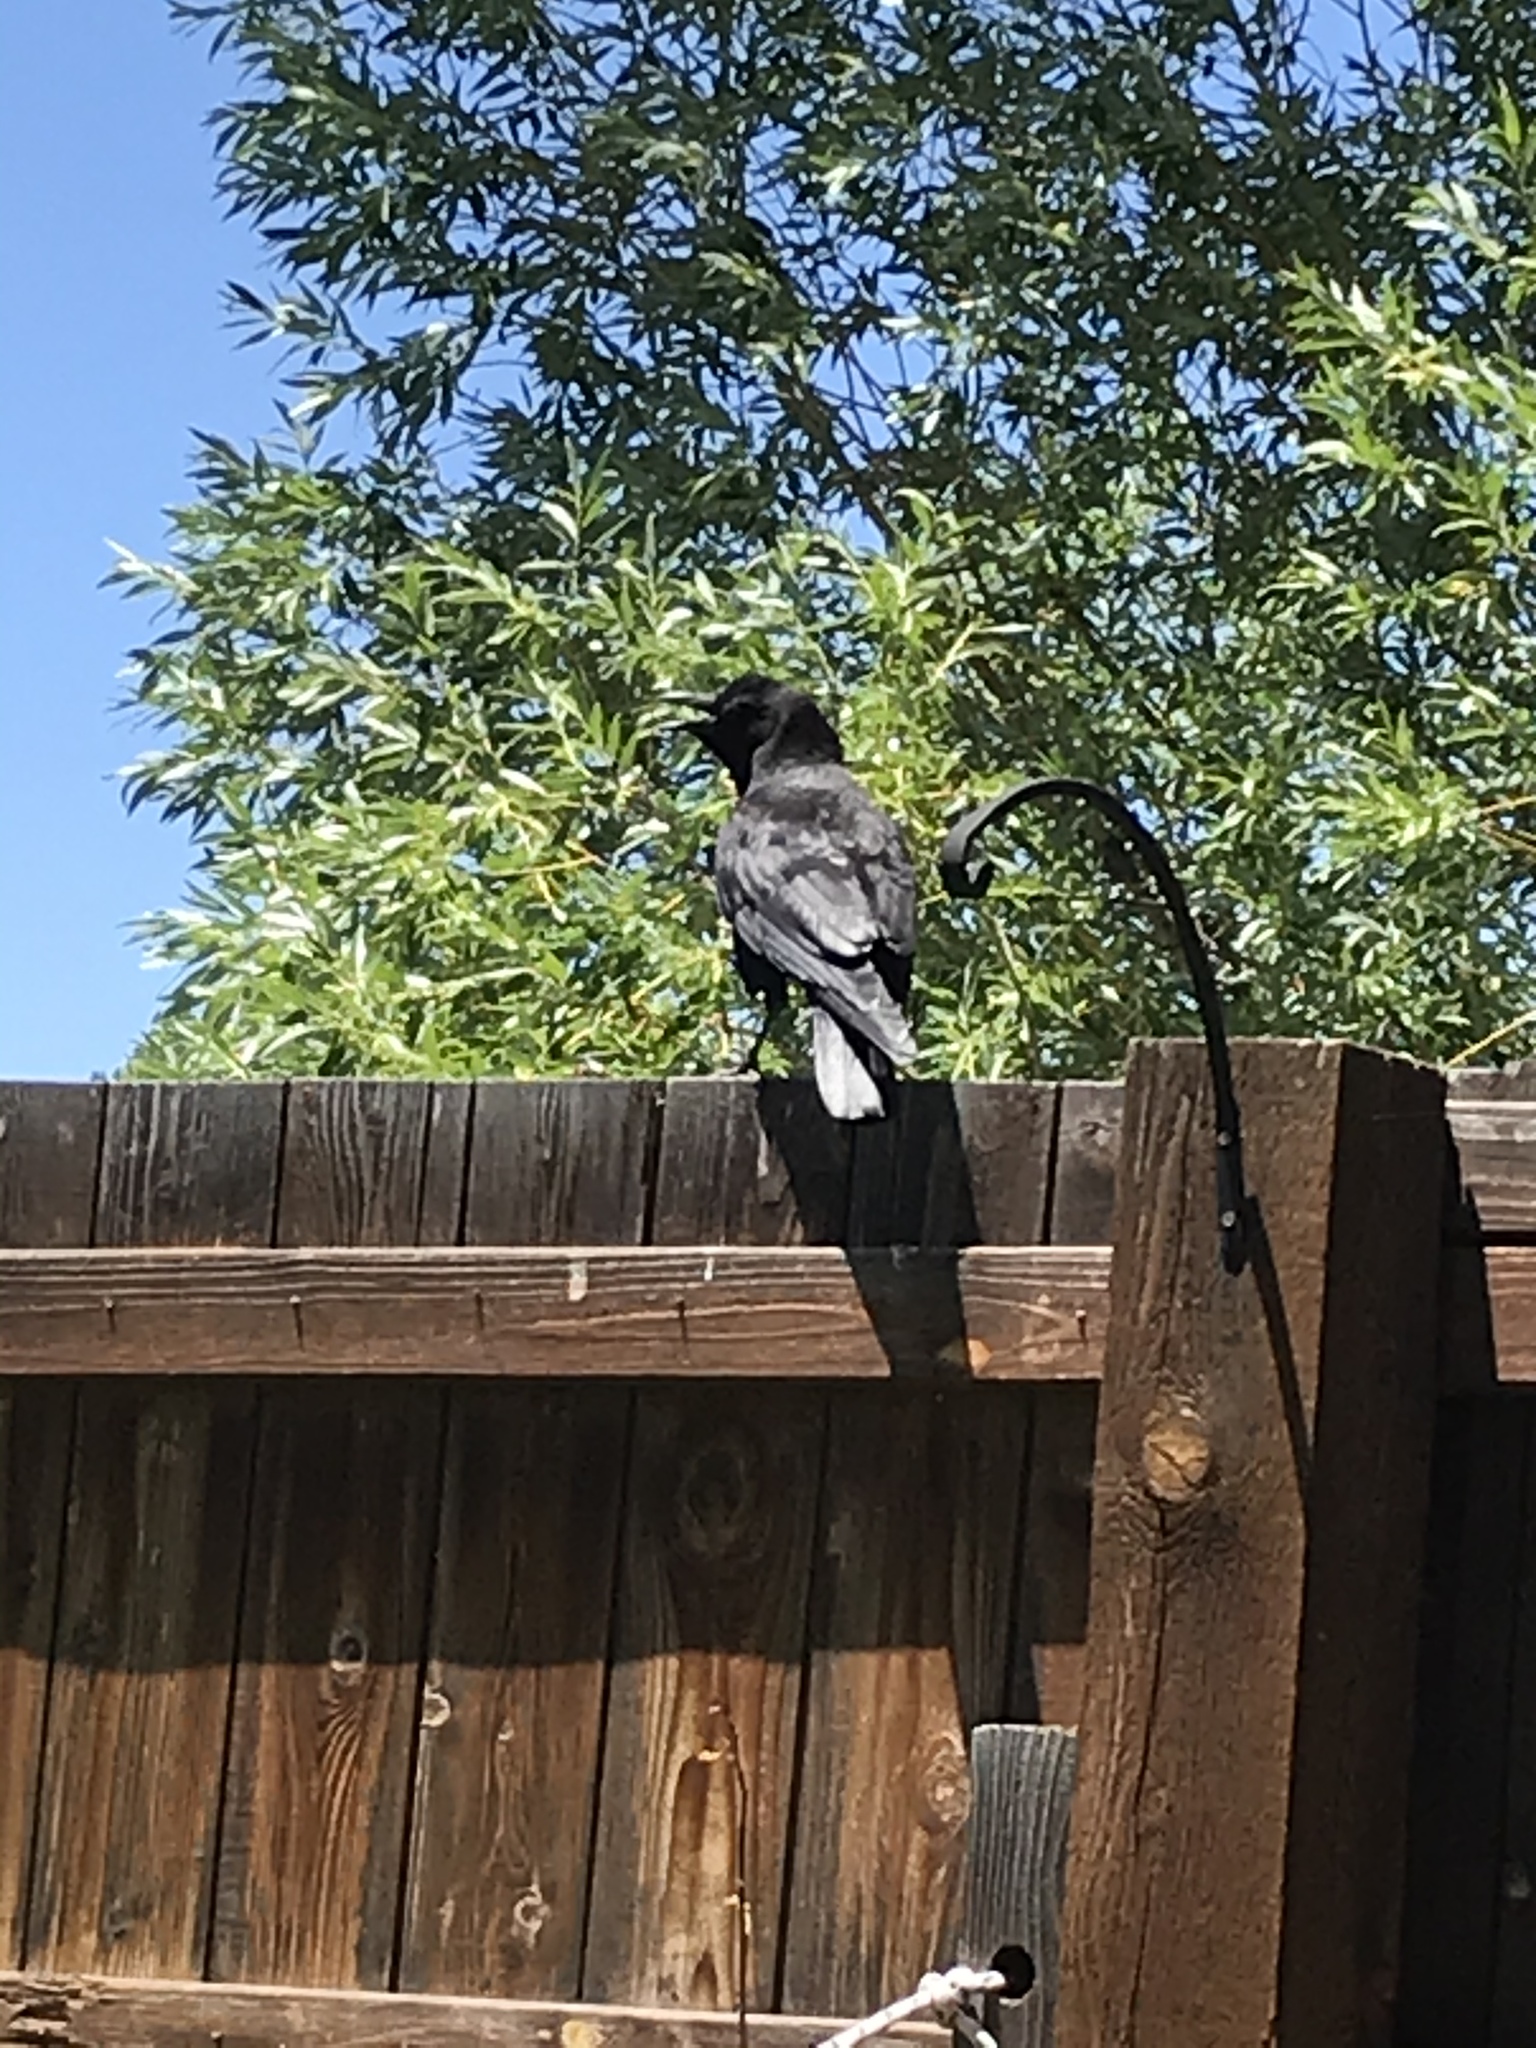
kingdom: Animalia
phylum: Chordata
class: Aves
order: Passeriformes
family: Corvidae
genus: Corvus
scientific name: Corvus brachyrhynchos
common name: American crow
